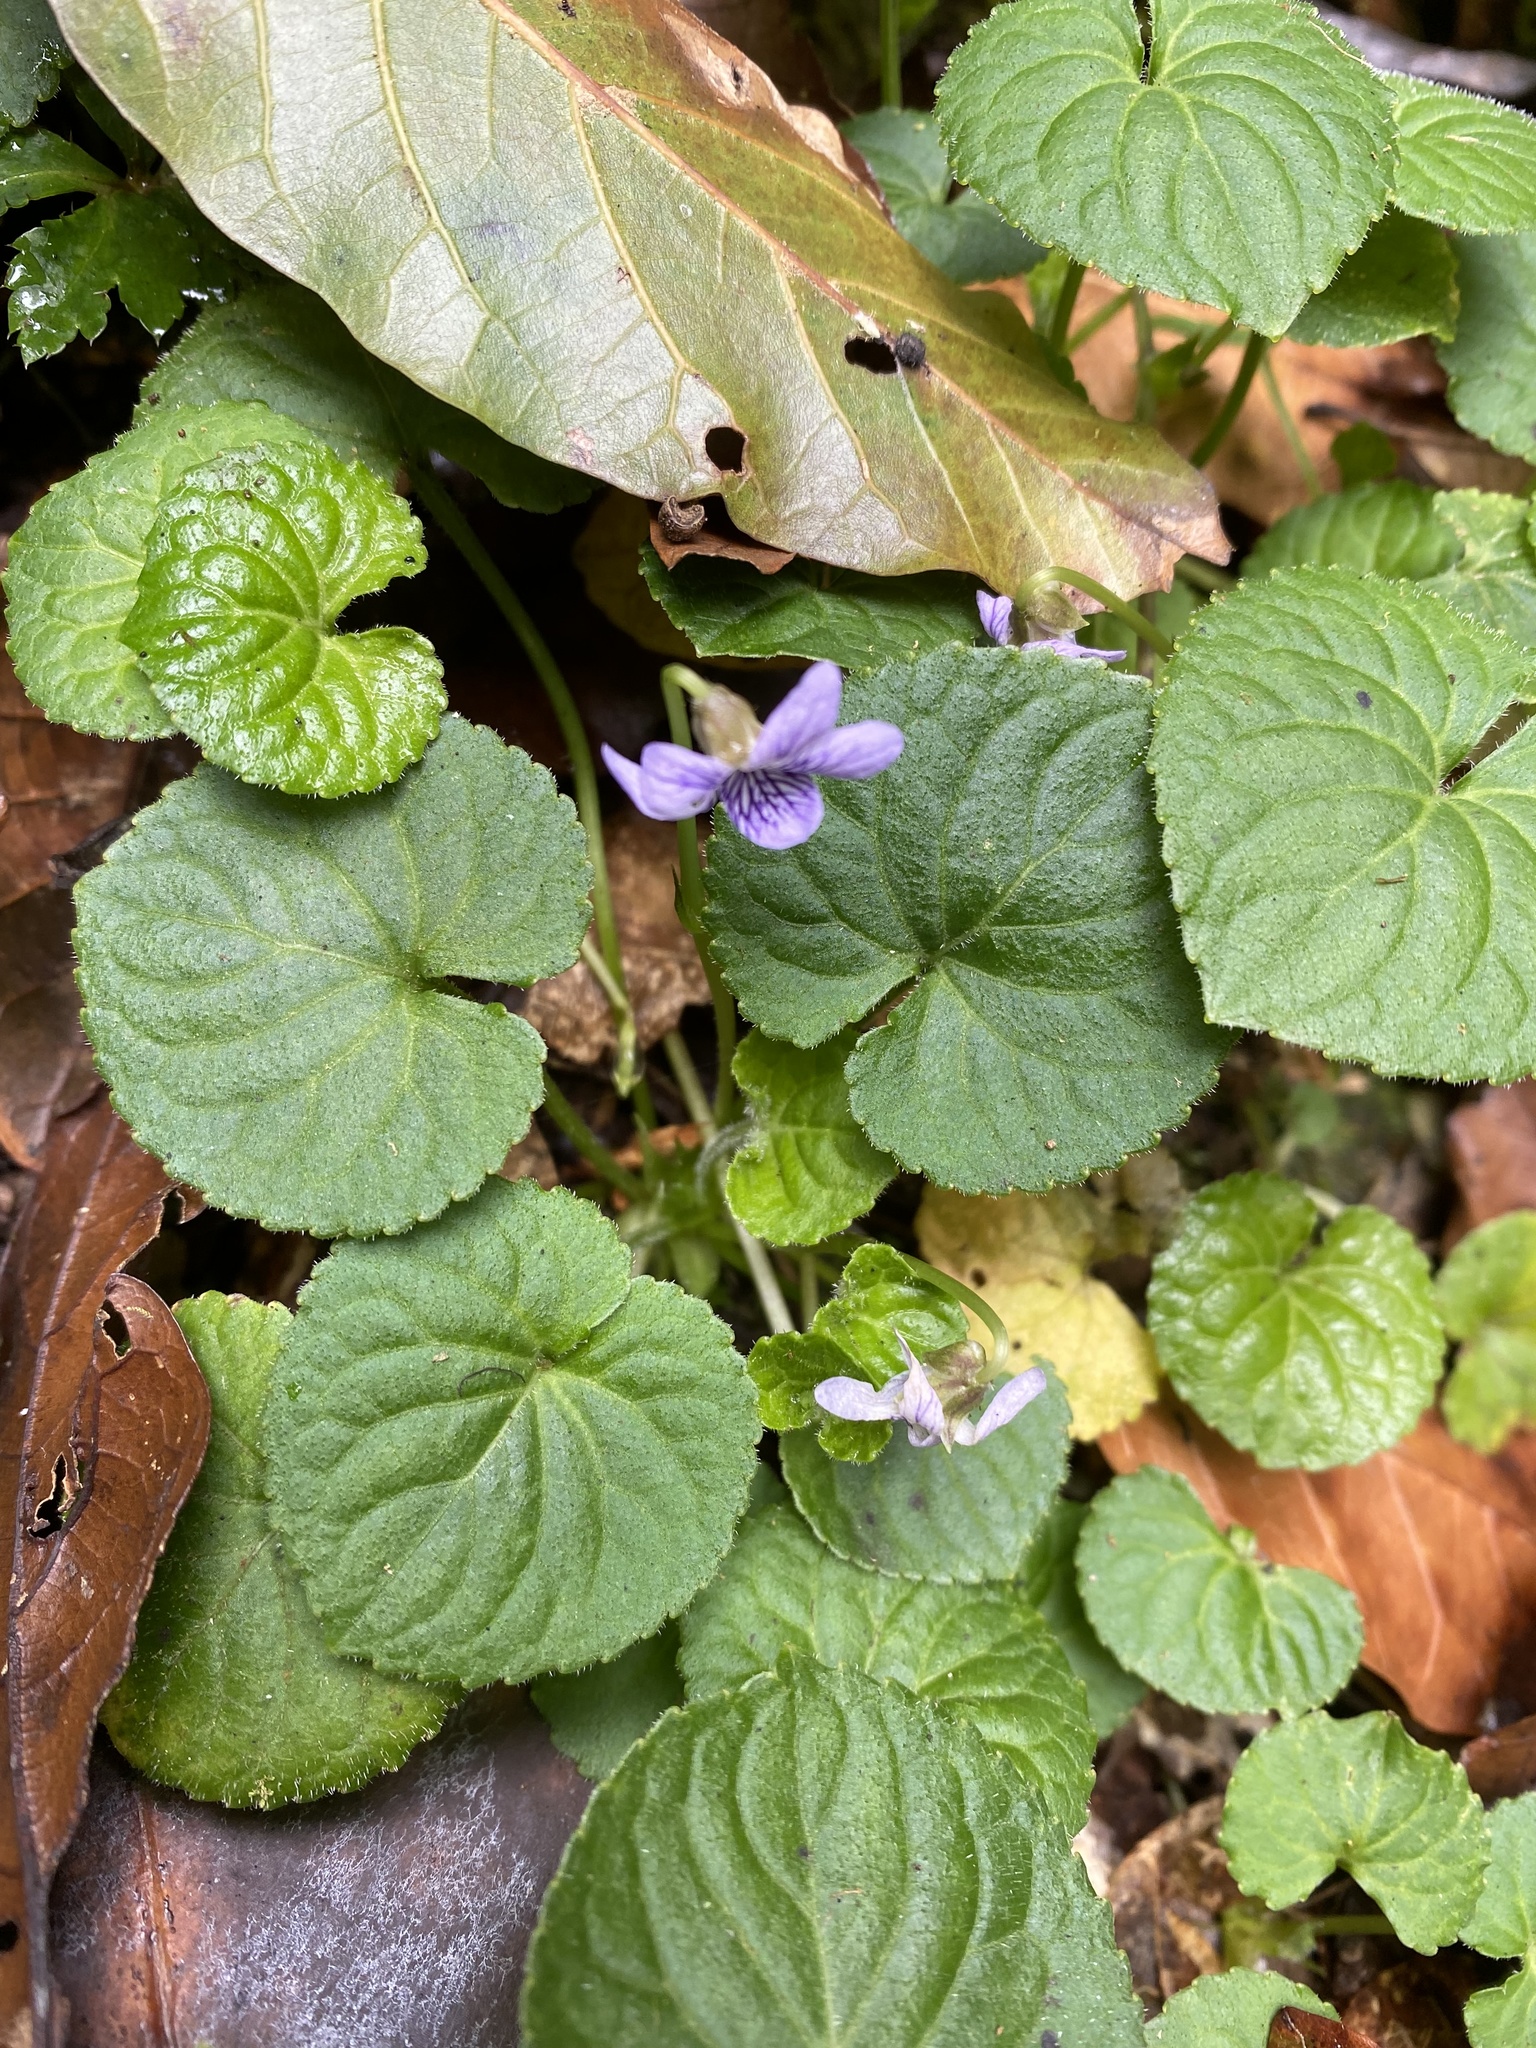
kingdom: Plantae
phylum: Tracheophyta
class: Magnoliopsida
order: Malpighiales
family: Violaceae
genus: Viola
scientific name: Viola guatemalensis
